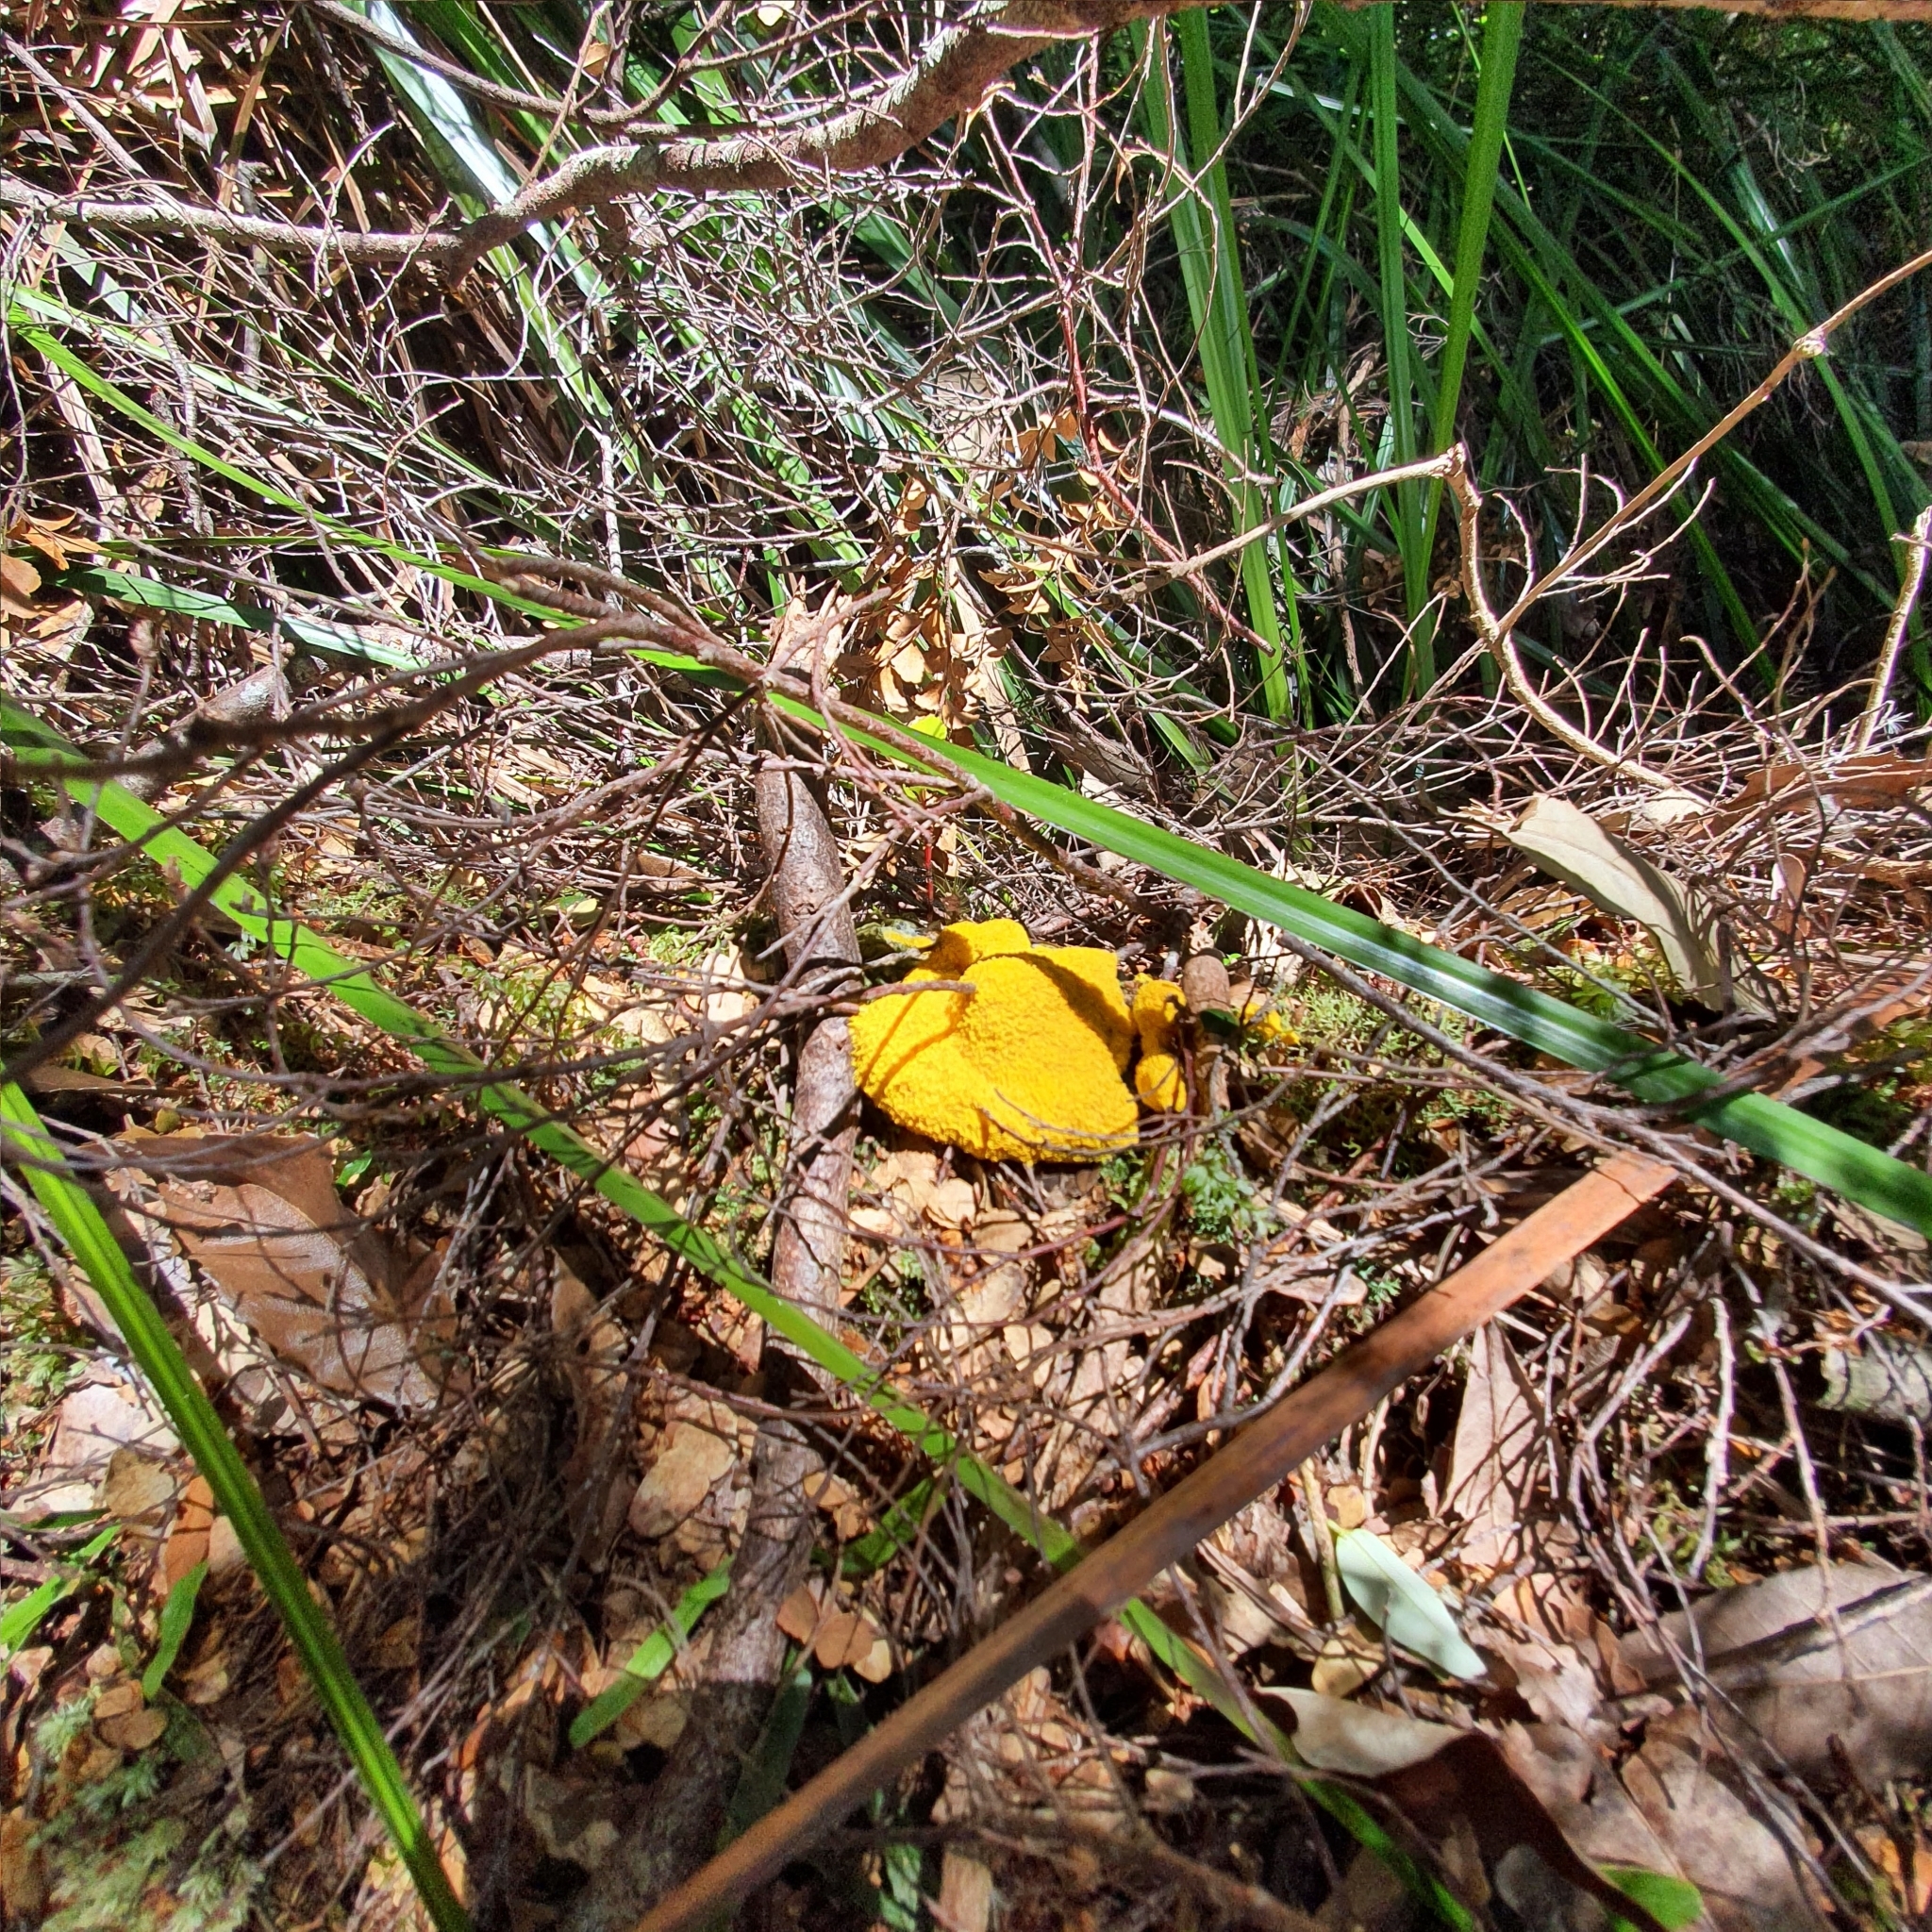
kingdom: Protozoa
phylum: Mycetozoa
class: Myxomycetes
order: Physarales
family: Physaraceae
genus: Fuligo
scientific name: Fuligo septica
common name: Dog vomit slime mold
